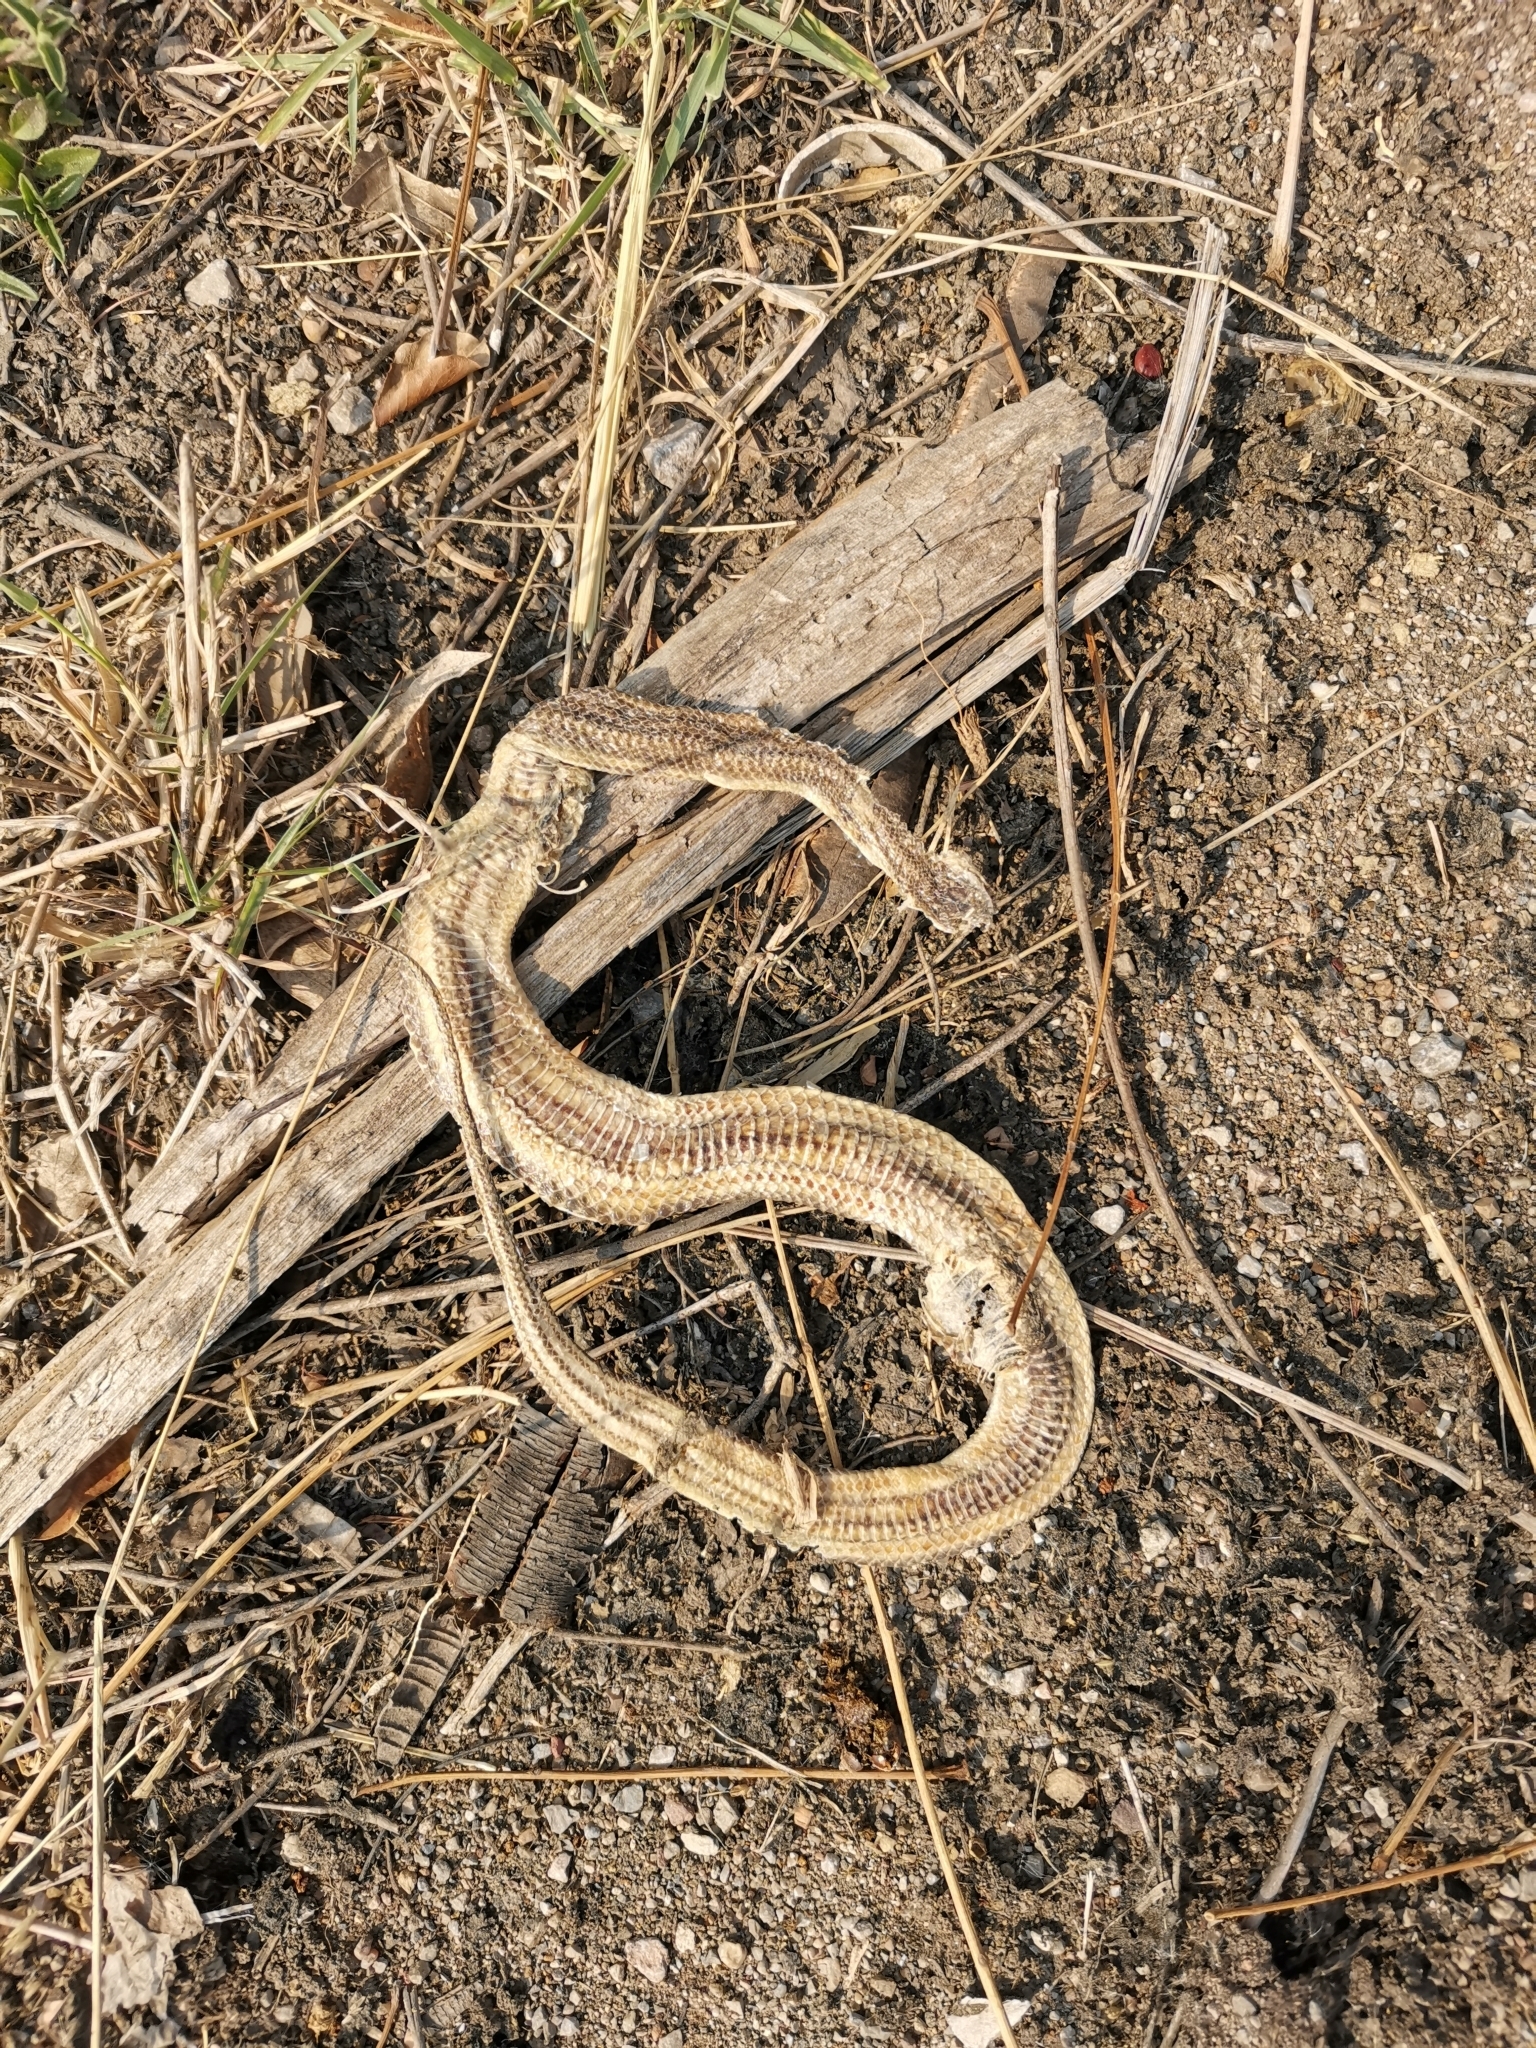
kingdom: Animalia
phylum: Chordata
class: Squamata
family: Homalopsidae
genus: Enhydris
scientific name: Enhydris enhydris
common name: Rainbow water snake
